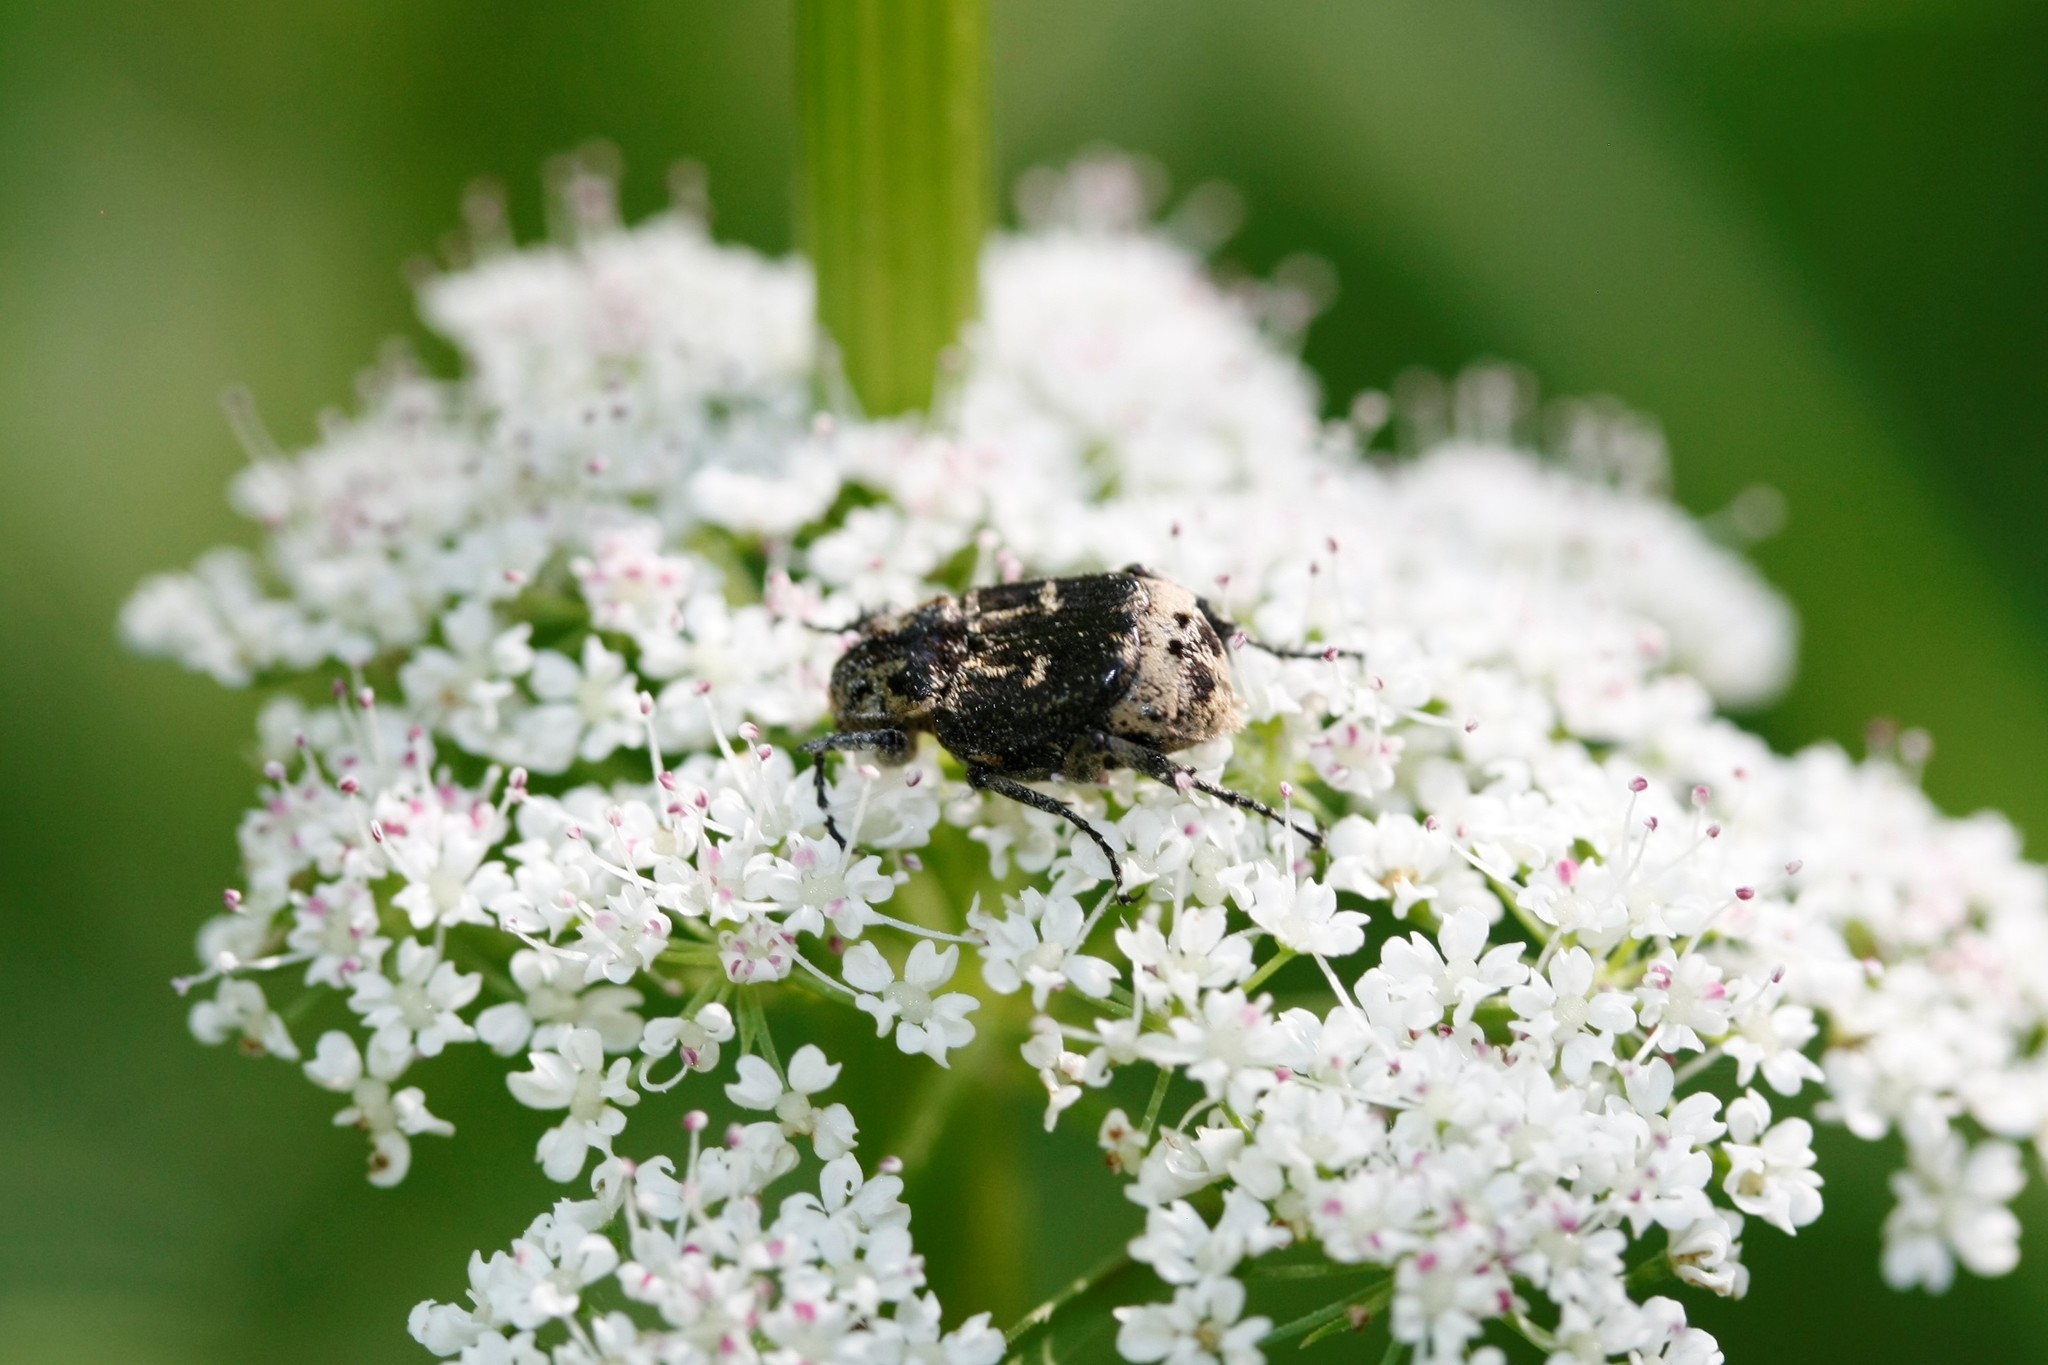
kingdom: Animalia
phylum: Arthropoda
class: Insecta
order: Coleoptera
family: Scarabaeidae
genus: Valgus
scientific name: Valgus hemipterus
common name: Bug flower chafer
